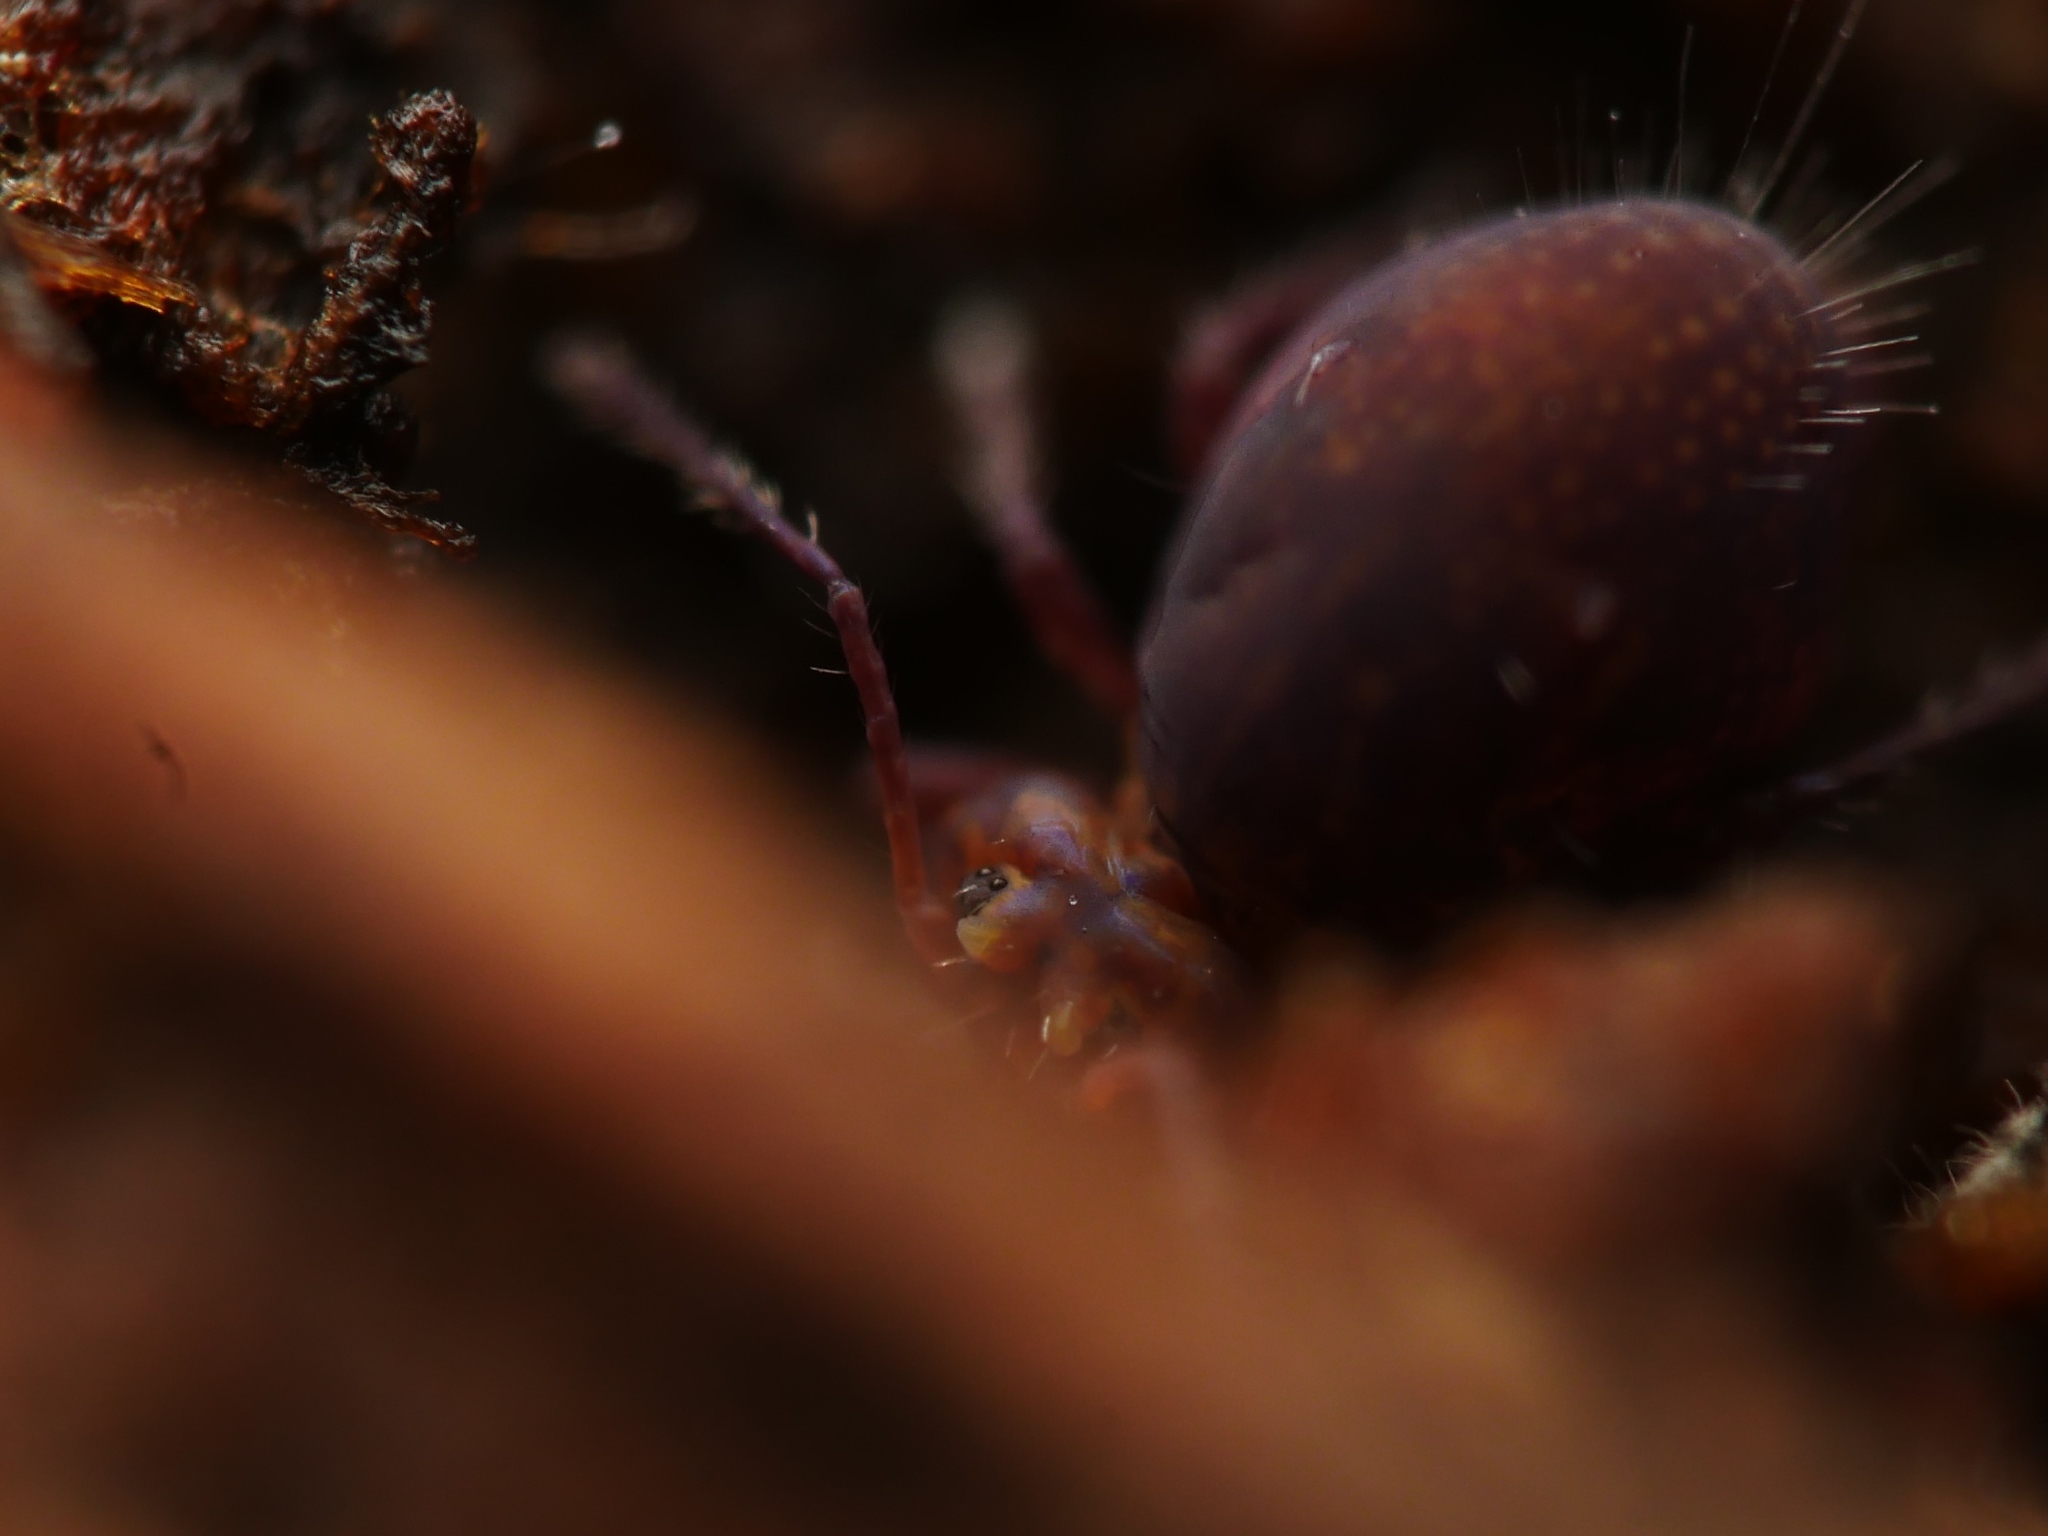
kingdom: Animalia
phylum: Arthropoda
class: Collembola
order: Symphypleona
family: Dicyrtomidae
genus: Dicyrtoma
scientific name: Dicyrtoma fusca
